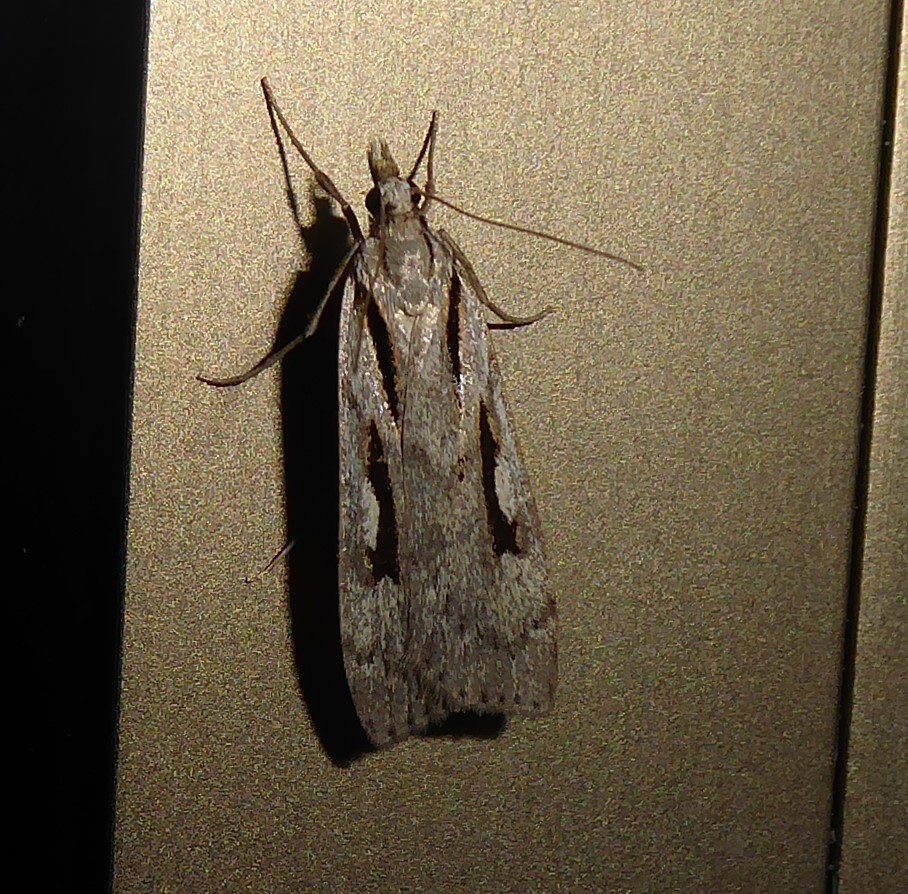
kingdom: Animalia
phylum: Arthropoda
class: Insecta
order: Lepidoptera
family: Crambidae
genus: Scoparia
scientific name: Scoparia rotuellus
